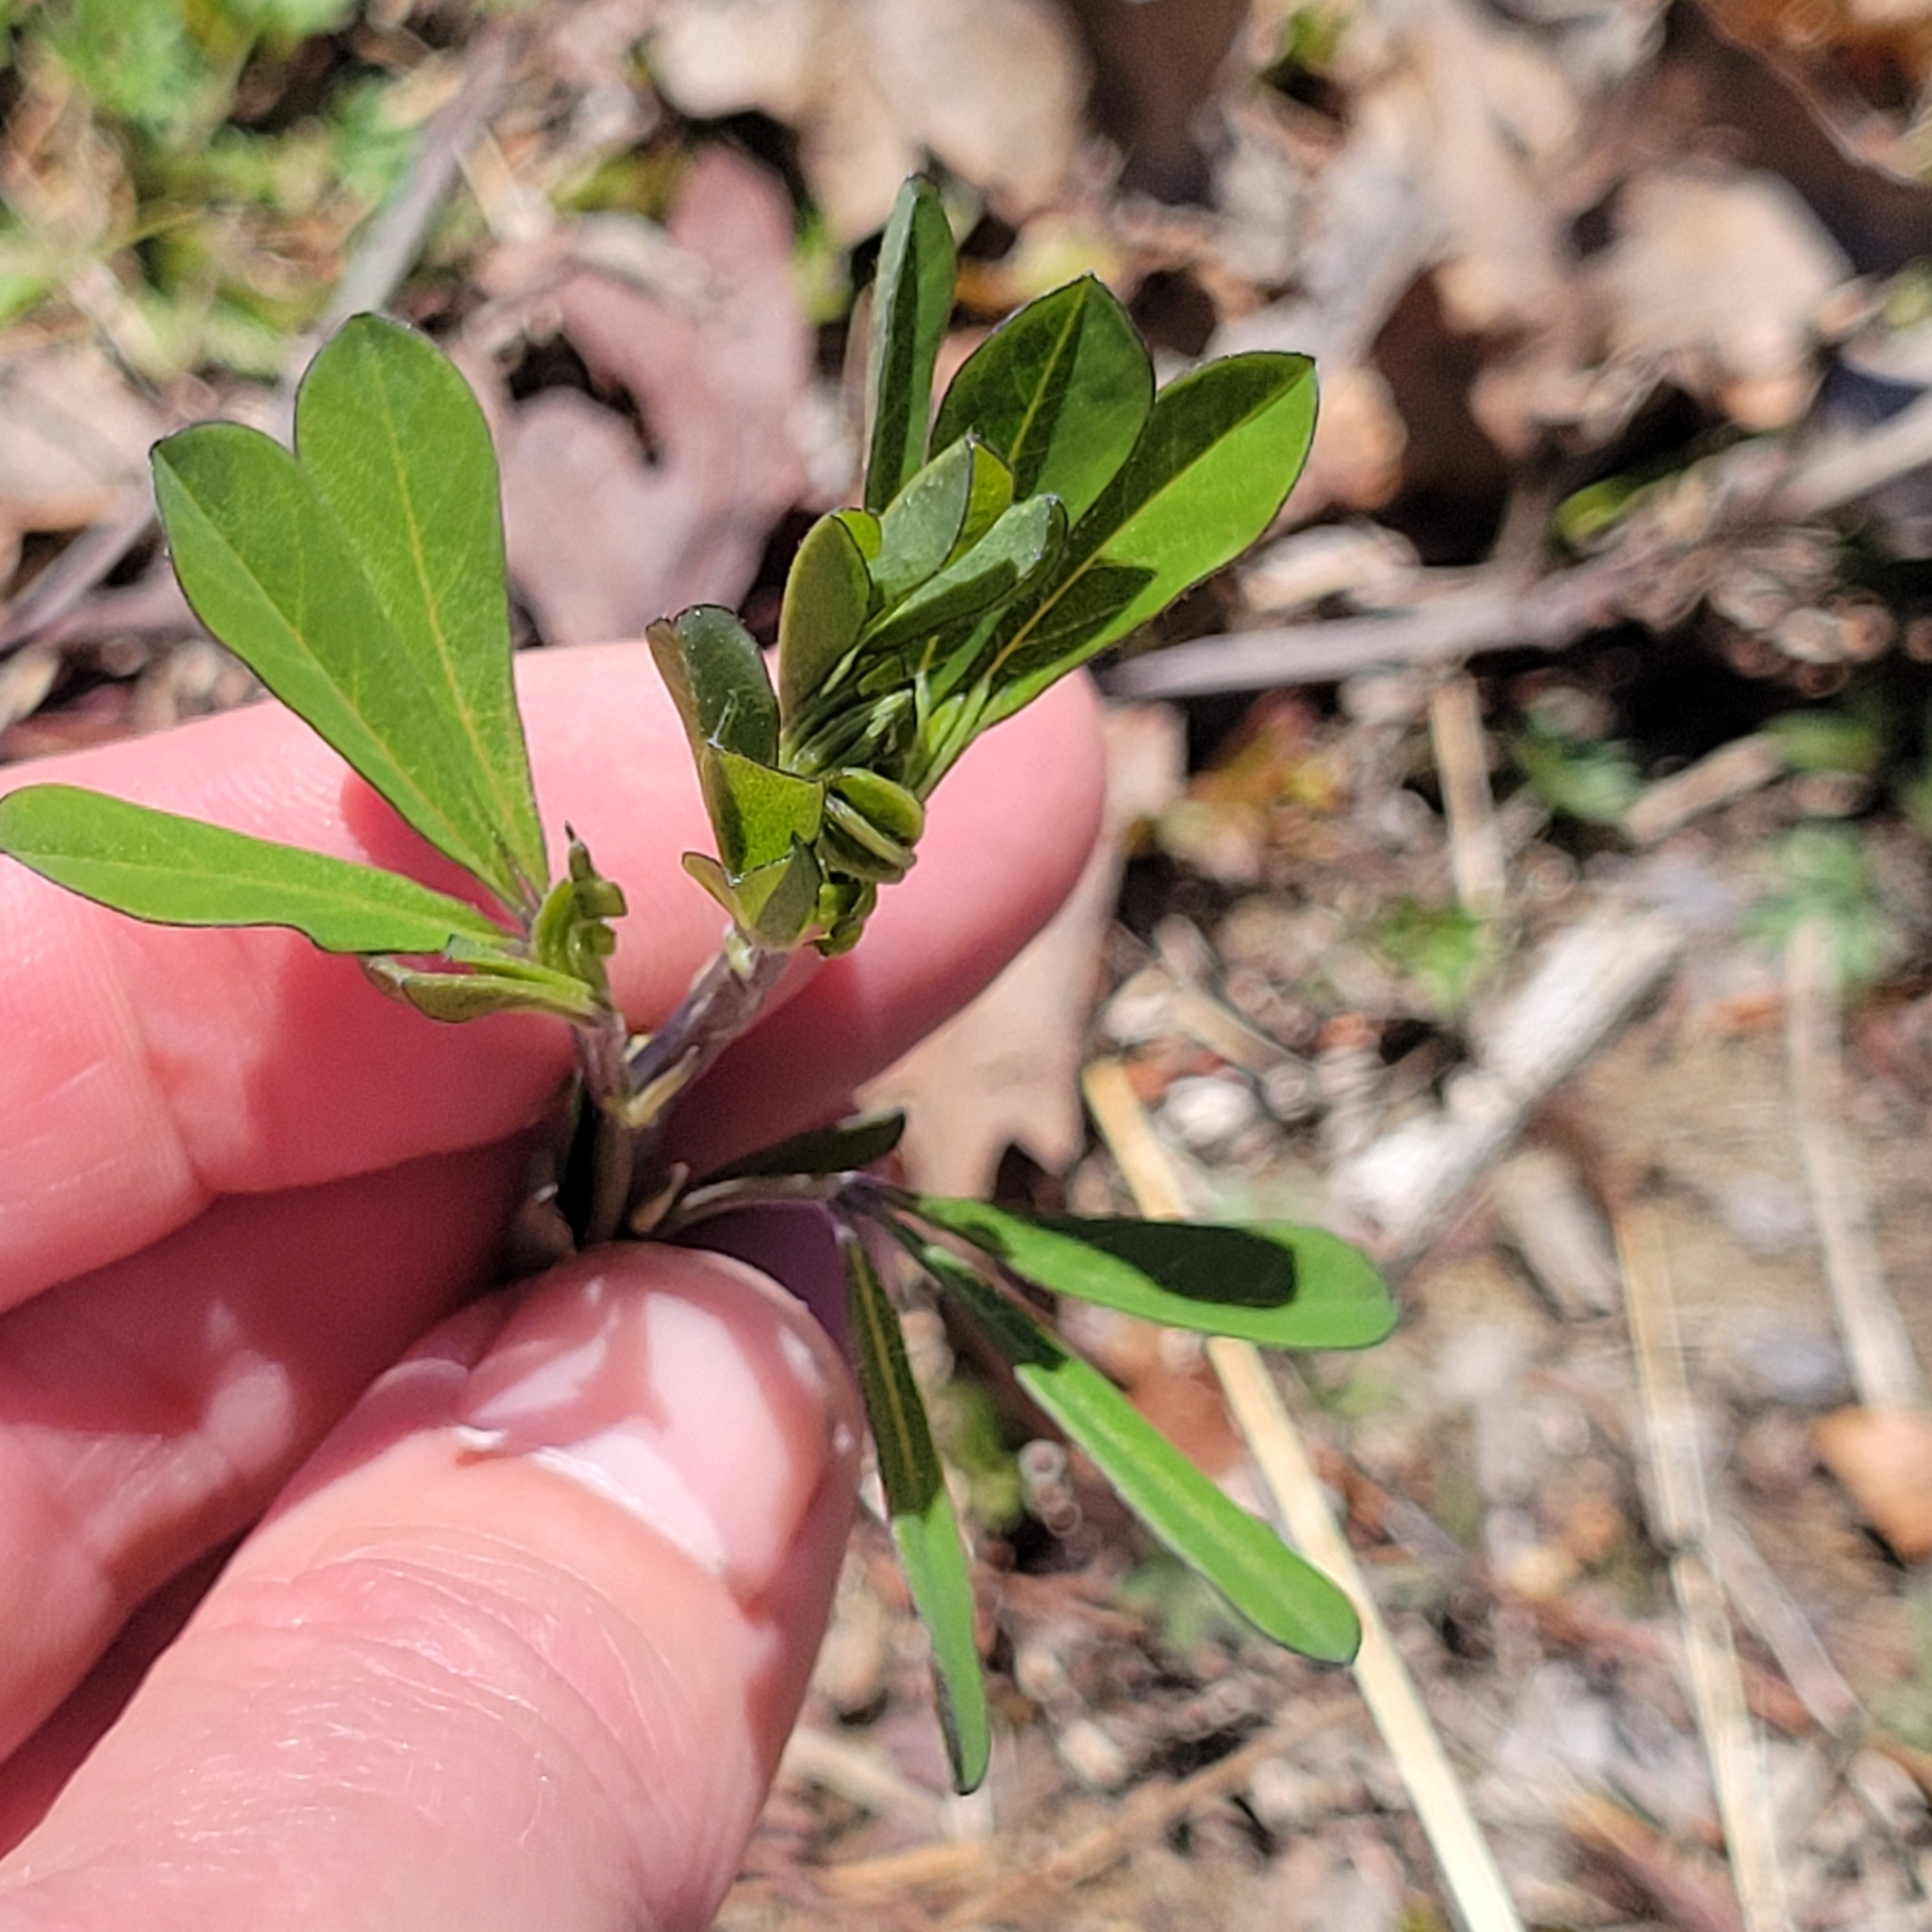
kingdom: Plantae
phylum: Tracheophyta
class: Magnoliopsida
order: Fabales
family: Fabaceae
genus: Baptisia
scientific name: Baptisia tinctoria
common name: Wild indigo
